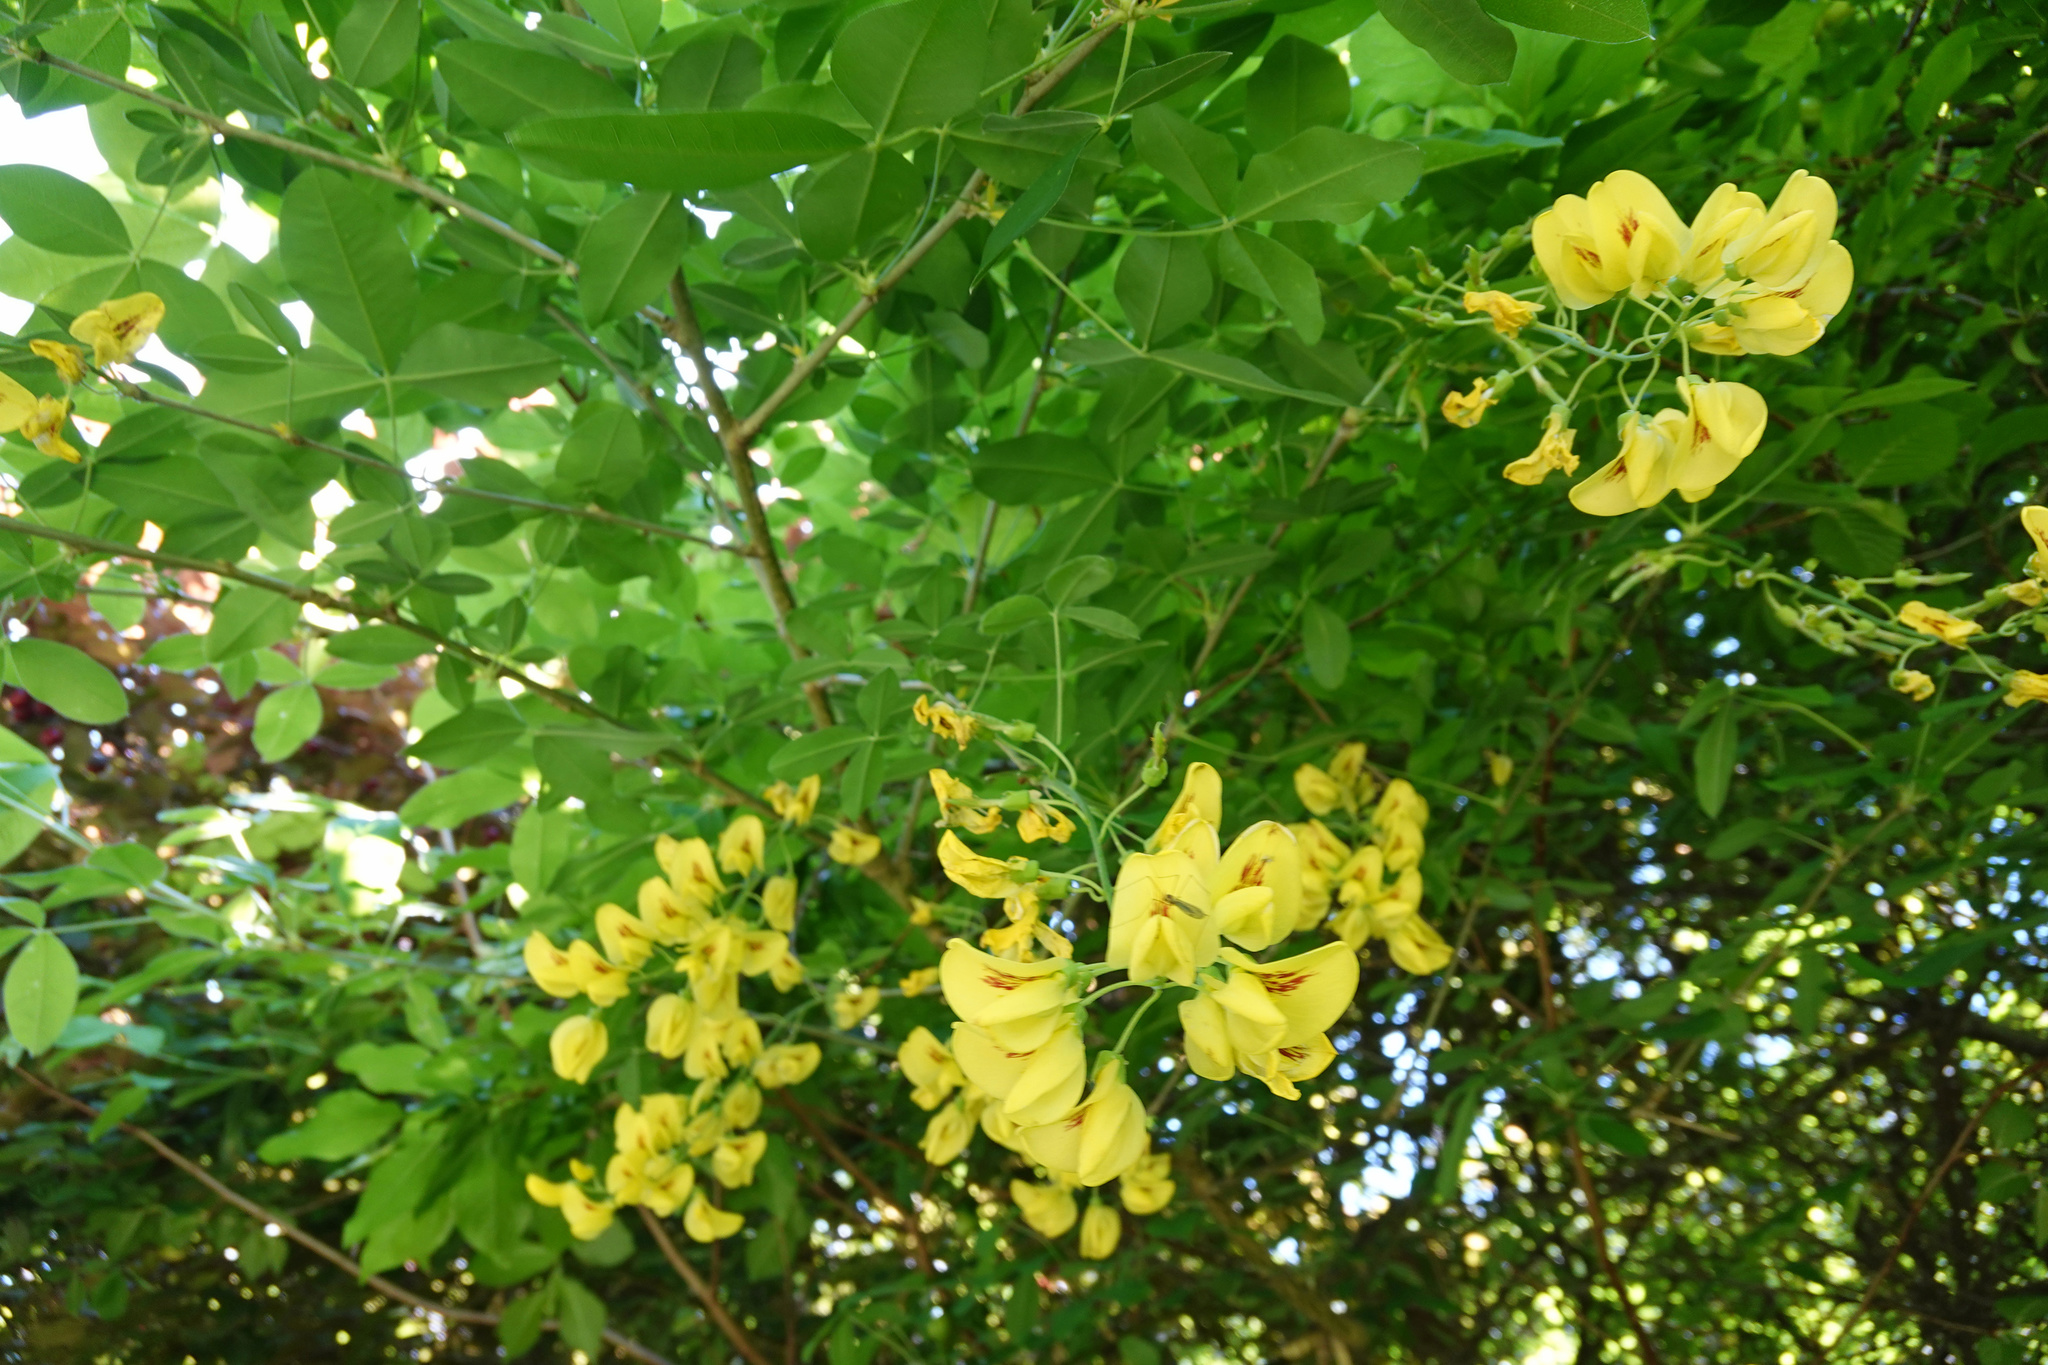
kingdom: Plantae
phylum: Tracheophyta
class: Magnoliopsida
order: Fabales
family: Fabaceae
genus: Laburnum
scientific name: Laburnum anagyroides
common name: Laburnum
